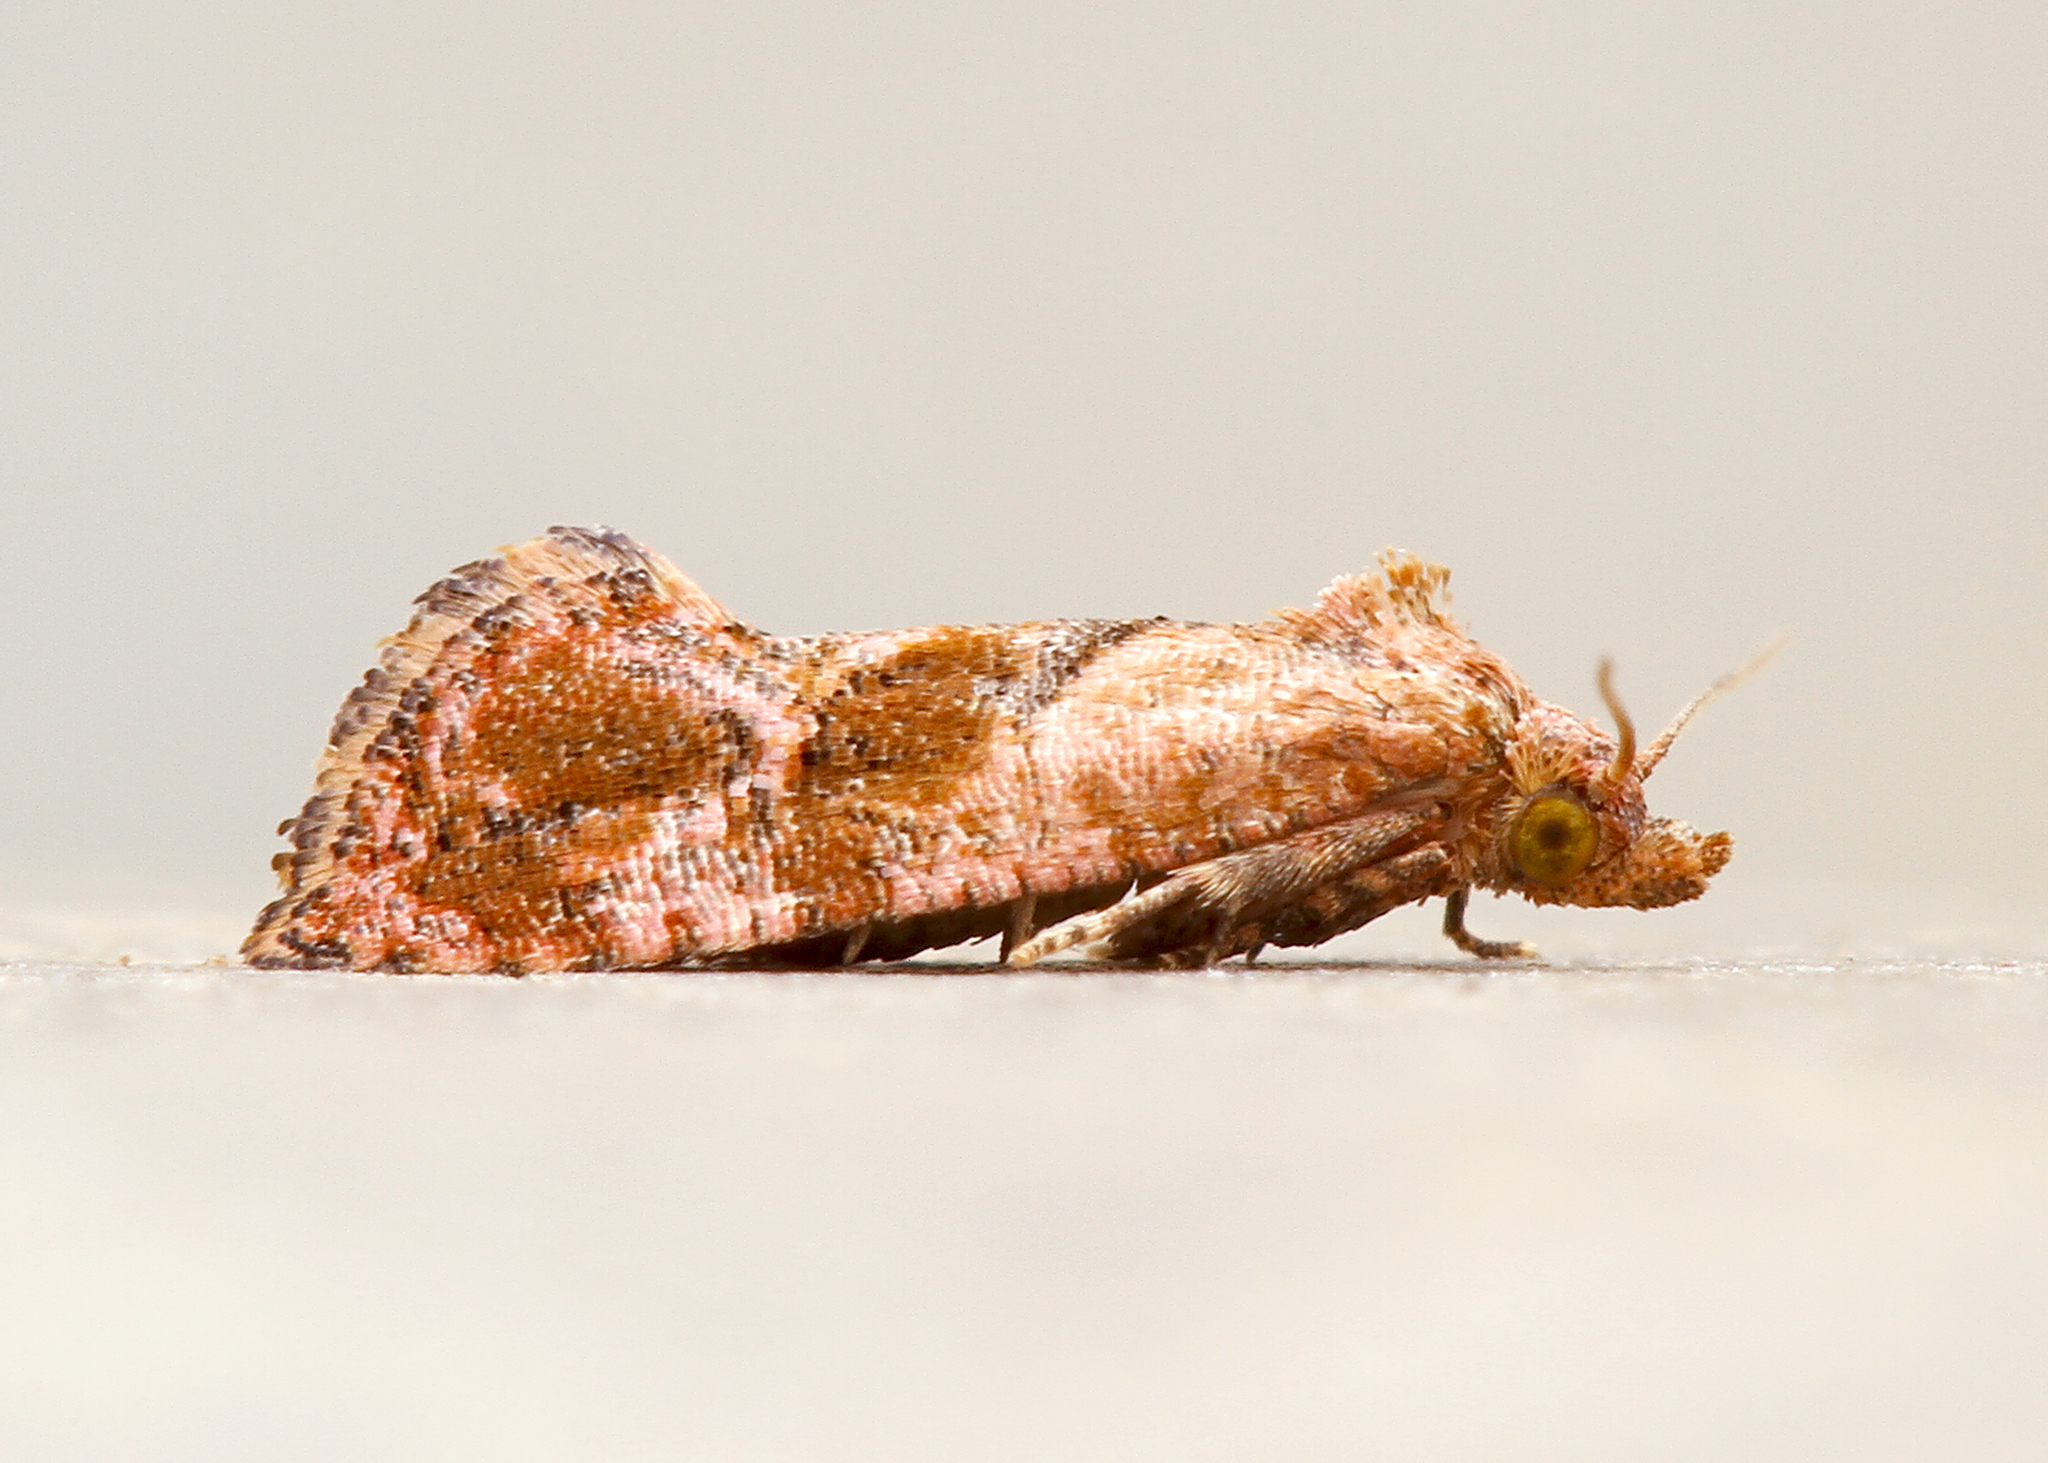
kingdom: Animalia
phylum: Arthropoda
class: Insecta
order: Lepidoptera
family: Tortricidae
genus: Cochylis
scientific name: Cochylis
